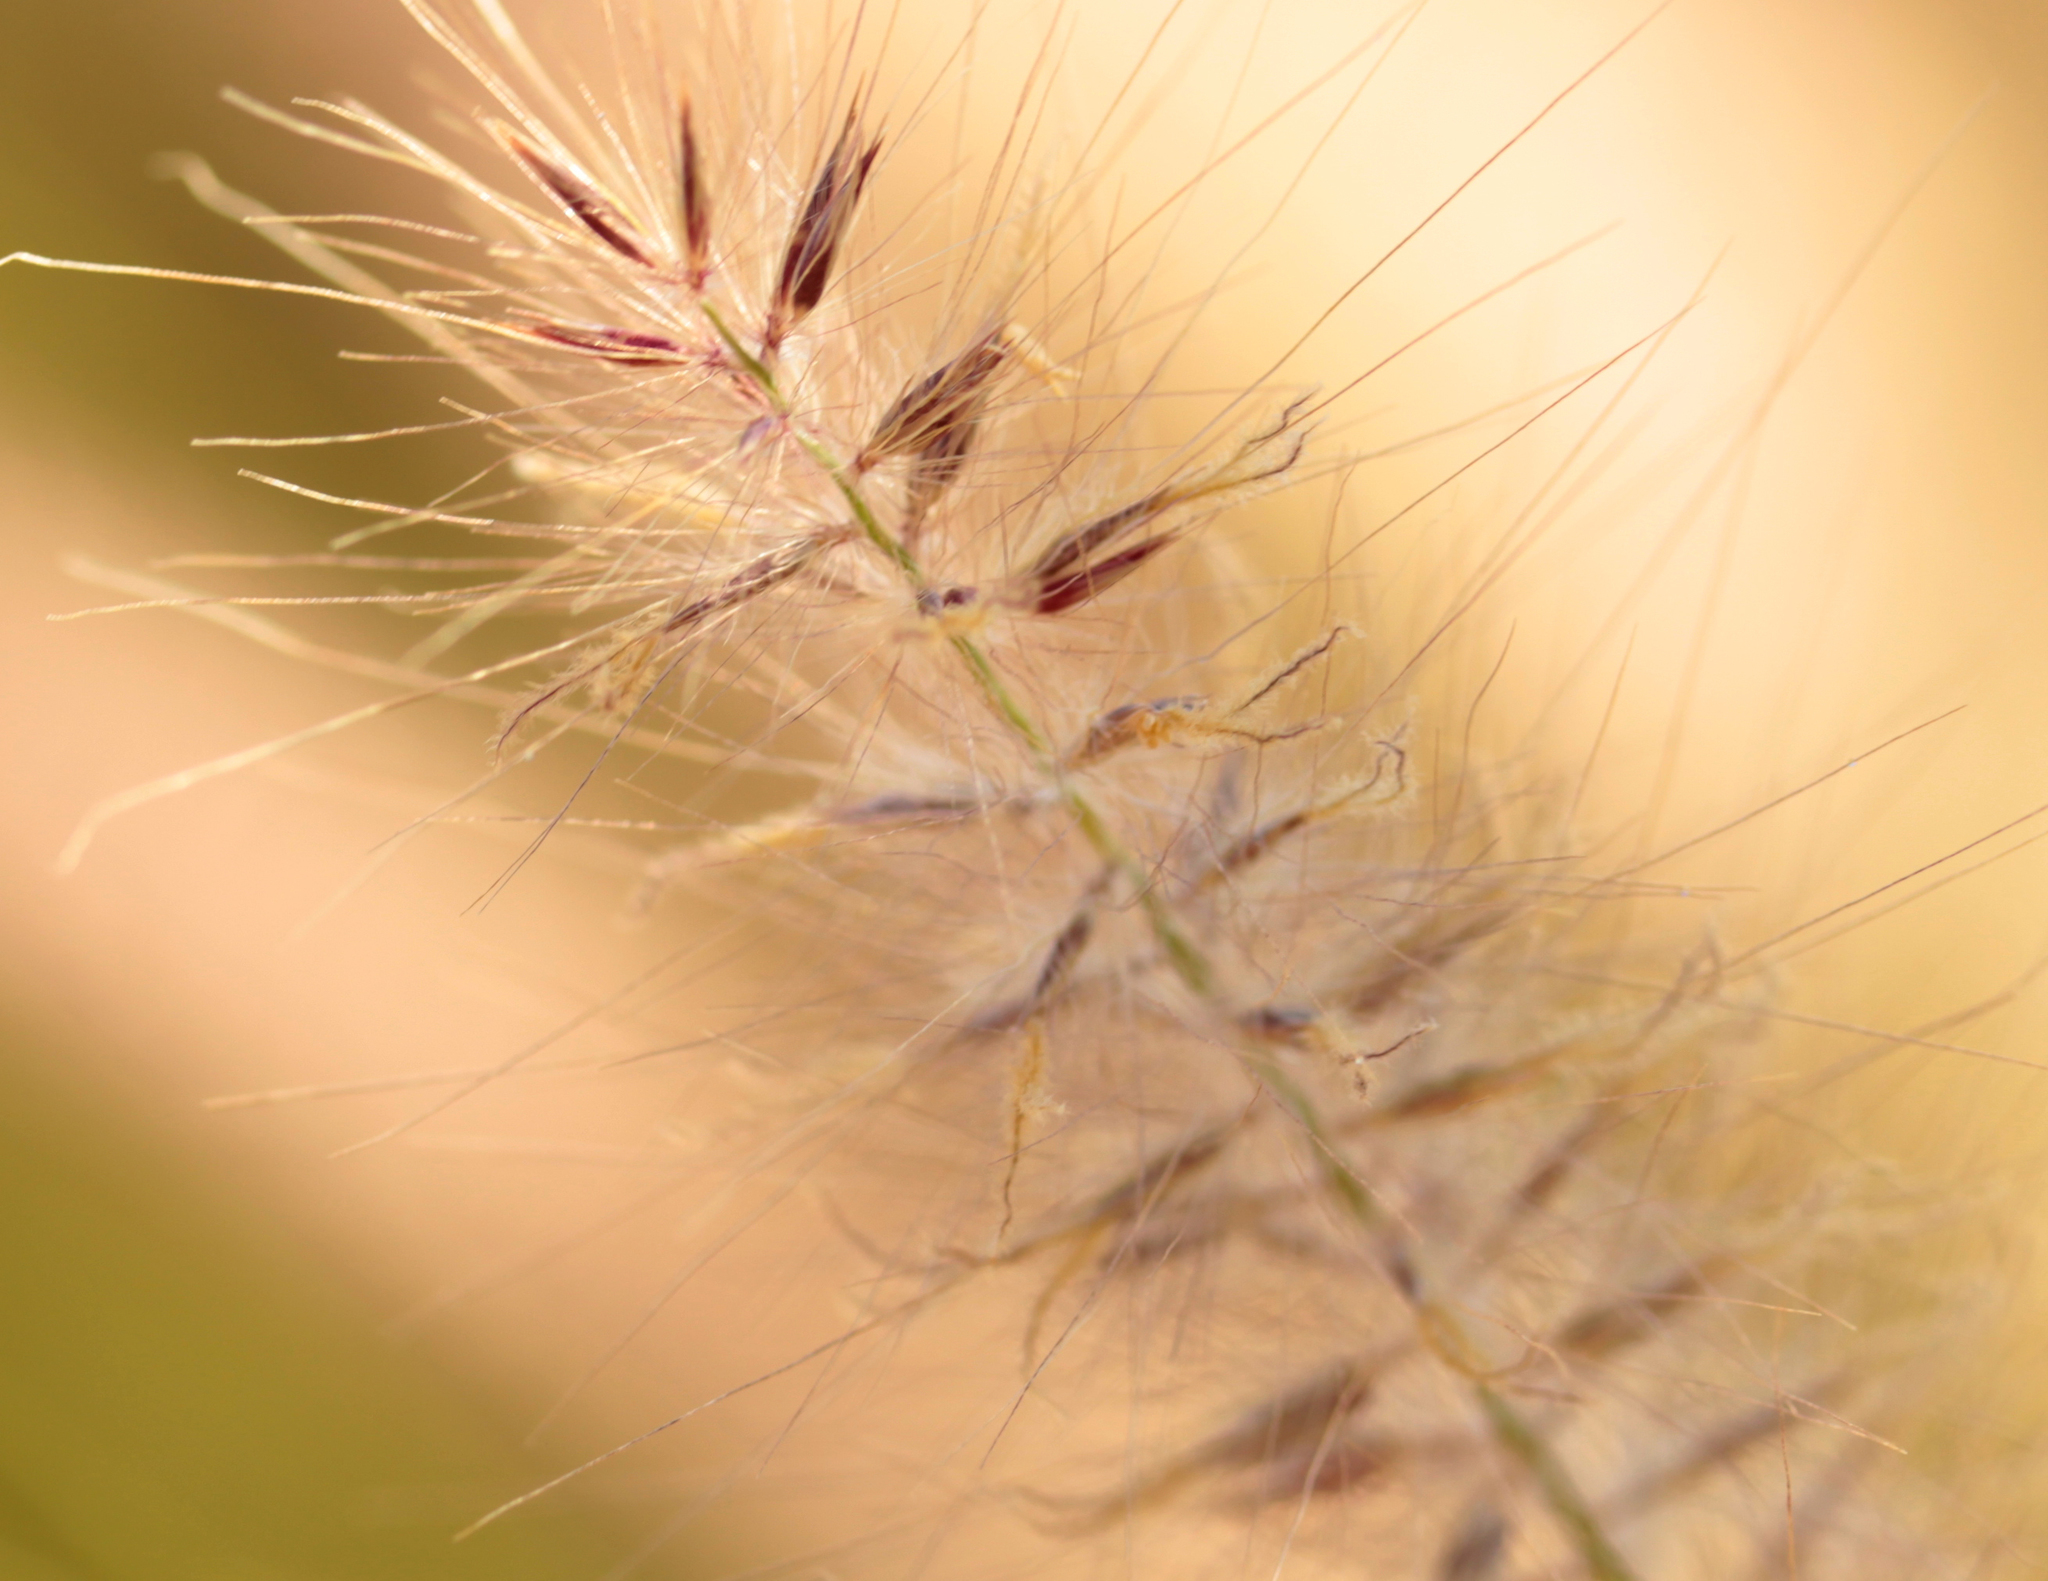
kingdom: Plantae
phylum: Tracheophyta
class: Liliopsida
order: Poales
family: Poaceae
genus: Cenchrus
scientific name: Cenchrus setaceus
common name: Crimson fountaingrass
